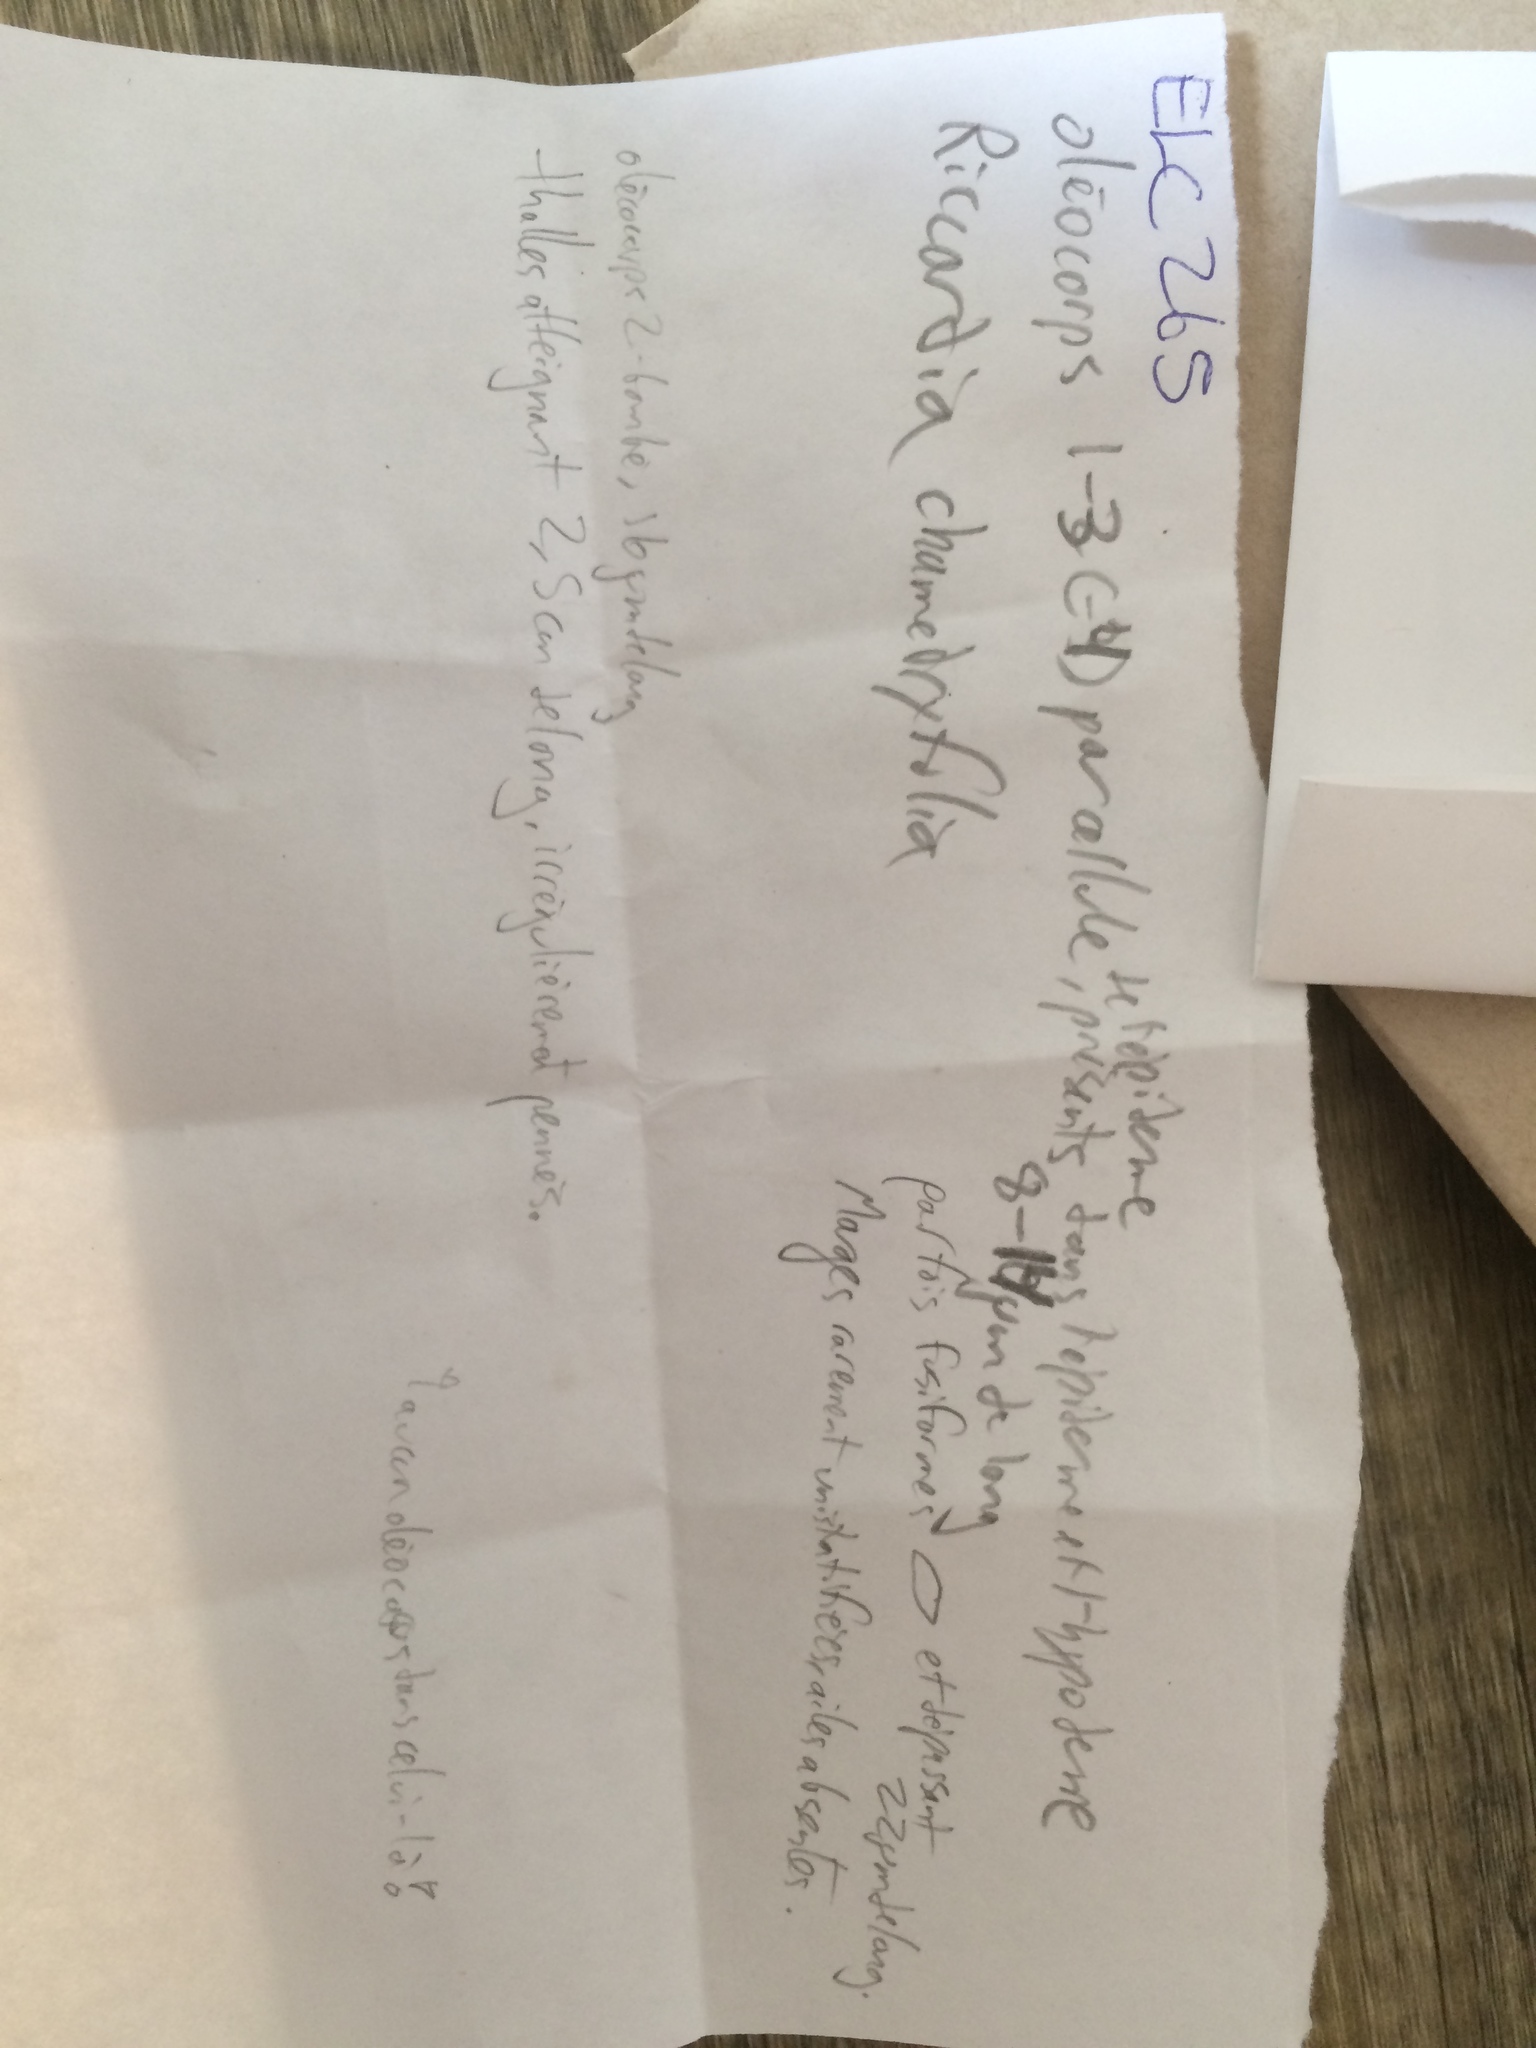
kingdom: Plantae
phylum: Marchantiophyta
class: Jungermanniopsida
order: Metzgeriales
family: Aneuraceae
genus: Riccardia
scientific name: Riccardia chamedryfolia
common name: Jagged germanderwort
